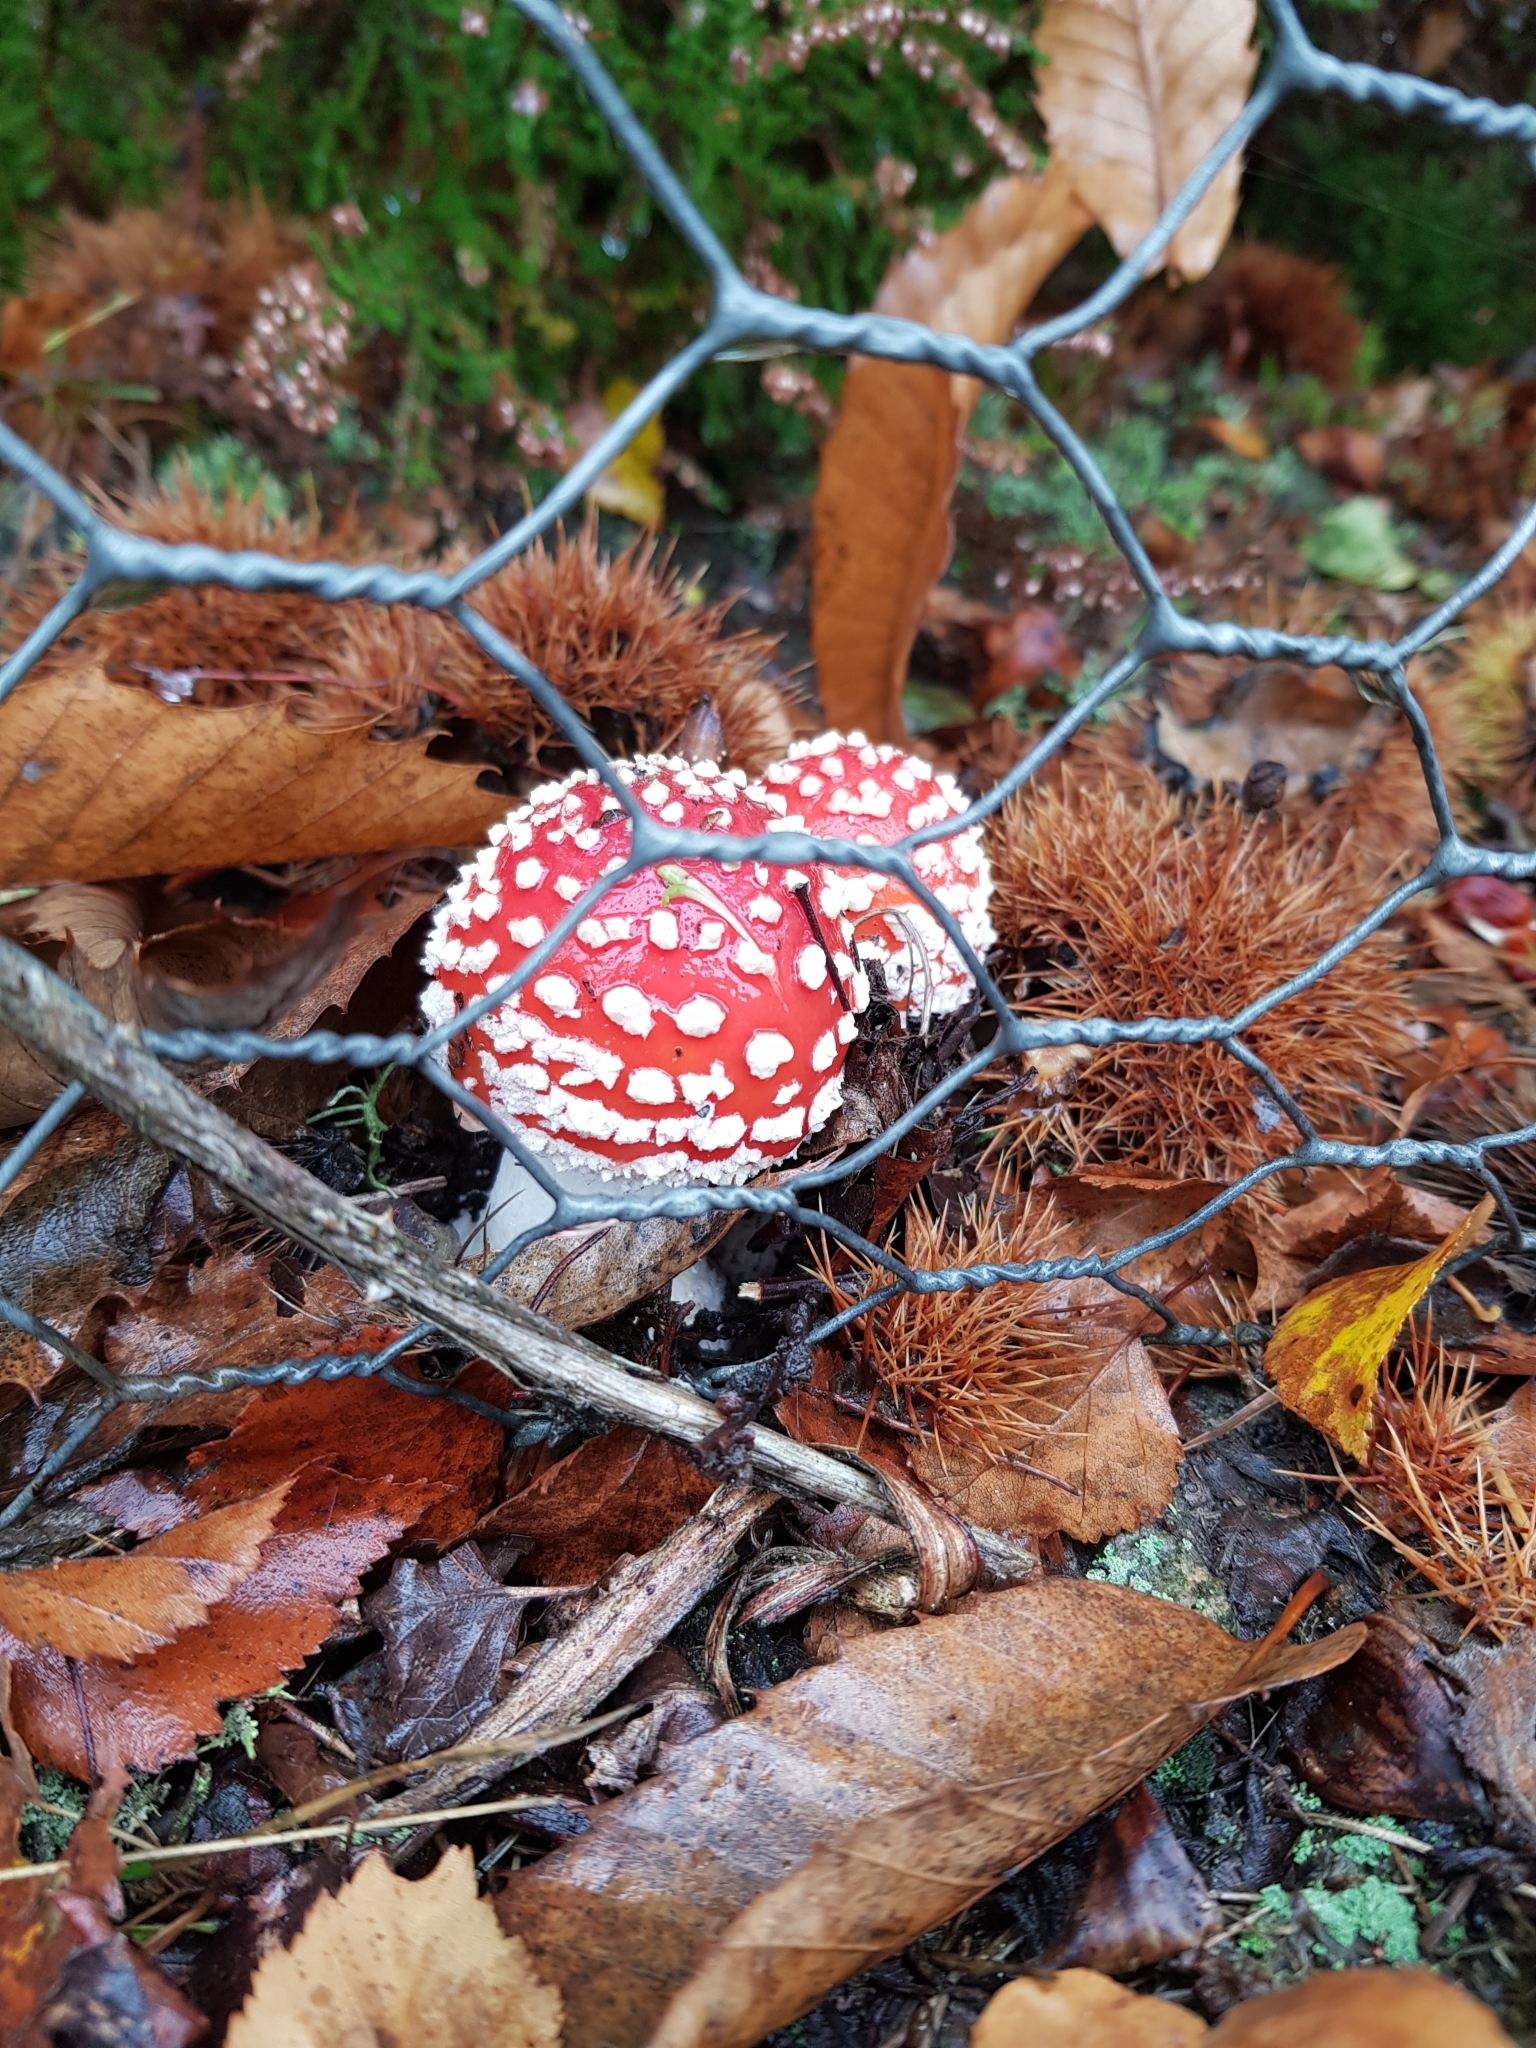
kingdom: Fungi
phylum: Basidiomycota
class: Agaricomycetes
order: Agaricales
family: Amanitaceae
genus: Amanita
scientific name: Amanita muscaria
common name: Fly agaric
